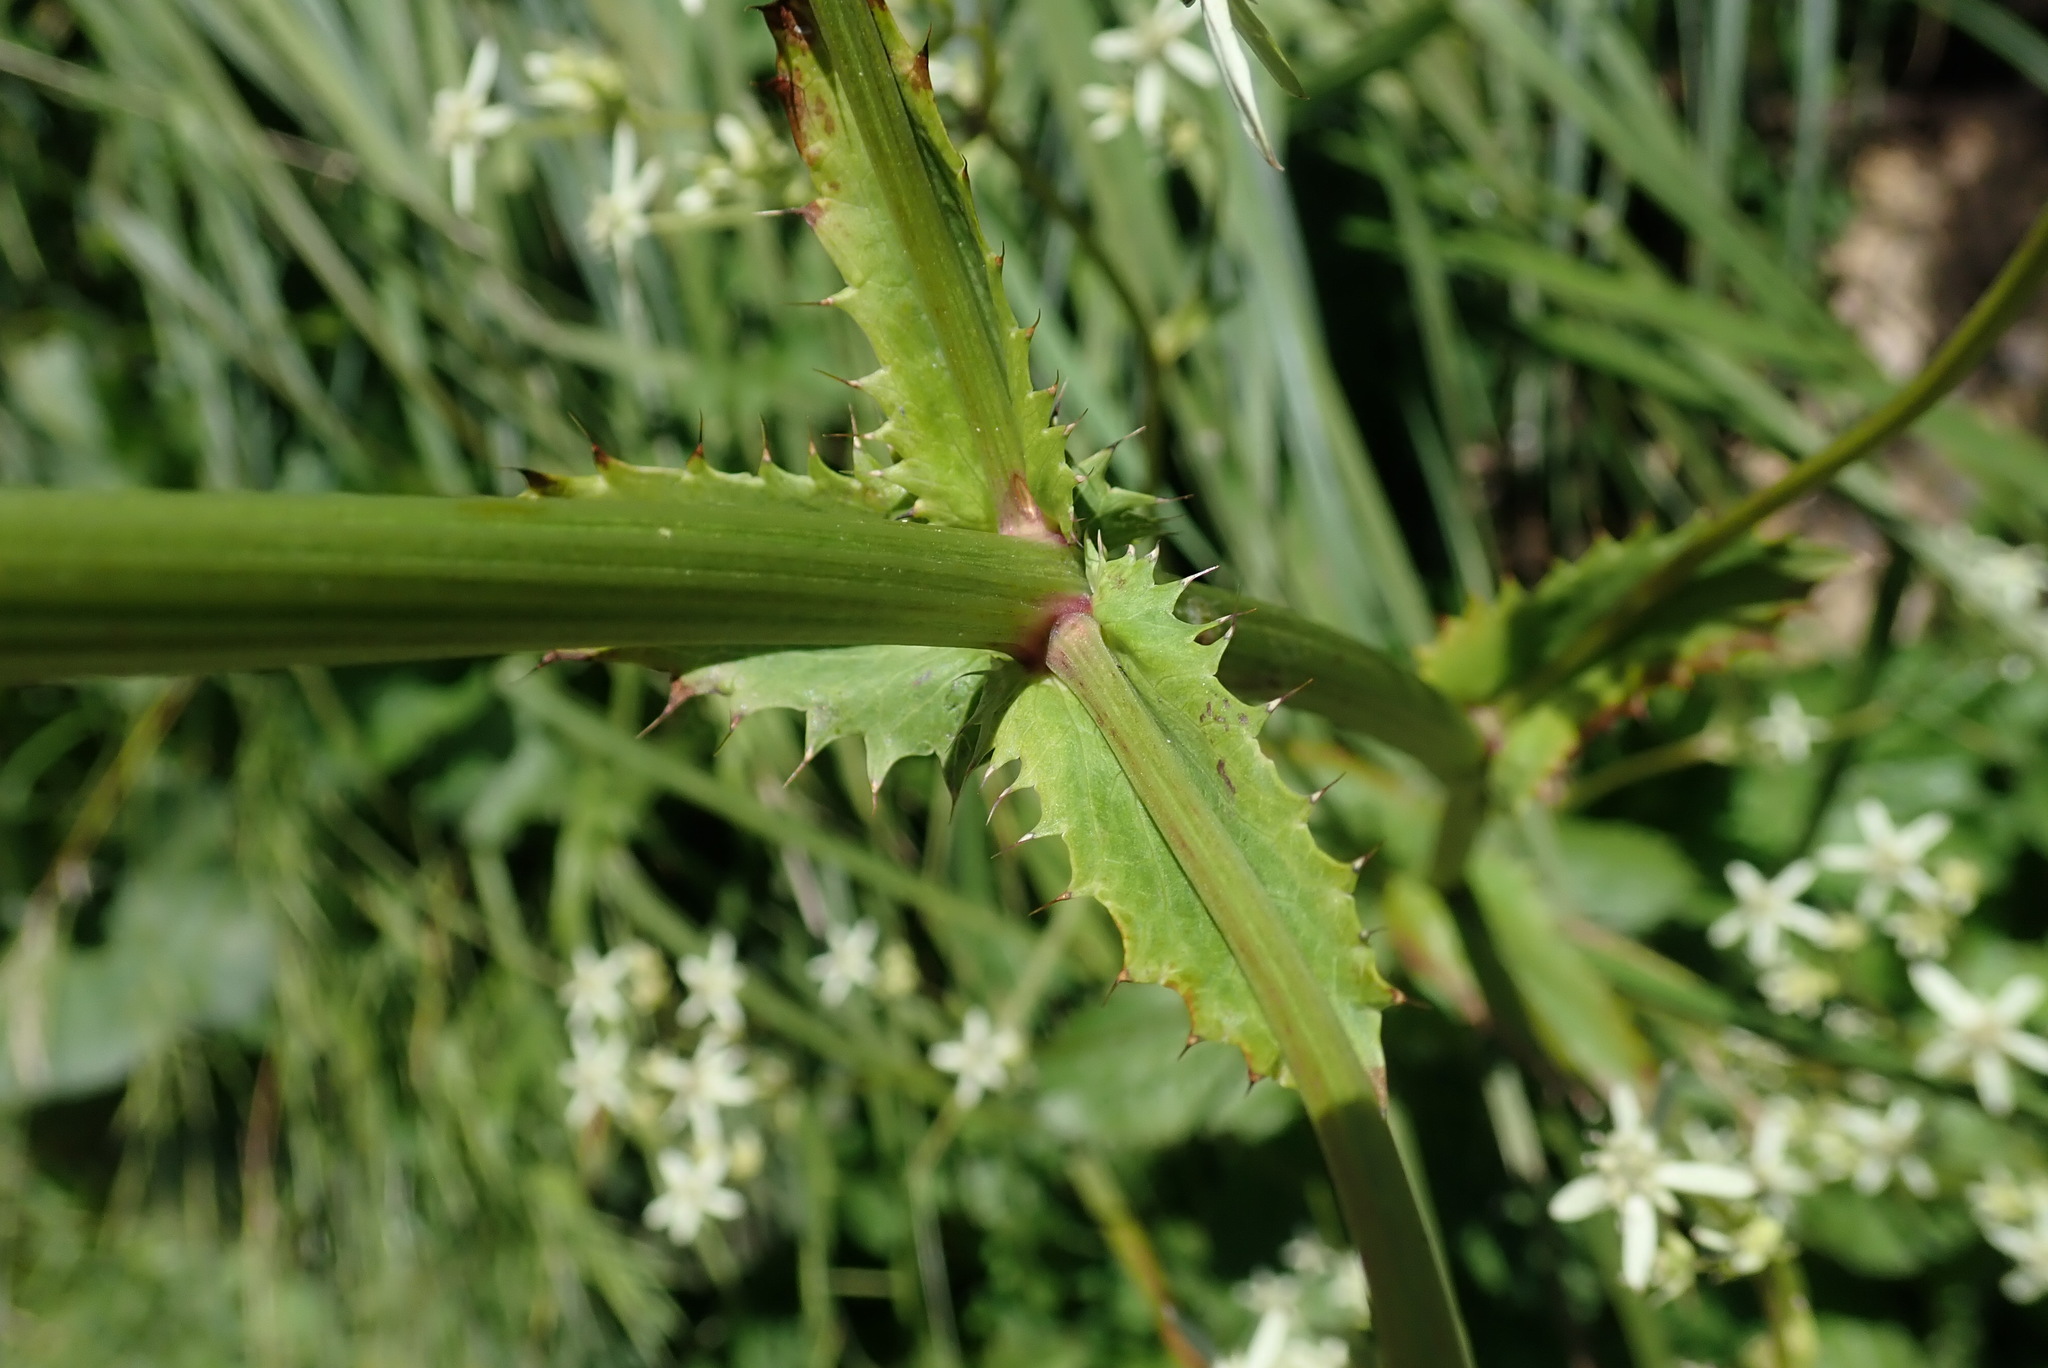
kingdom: Plantae
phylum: Tracheophyta
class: Magnoliopsida
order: Apiales
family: Apiaceae
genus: Alepidea
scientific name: Alepidea cordifolia
